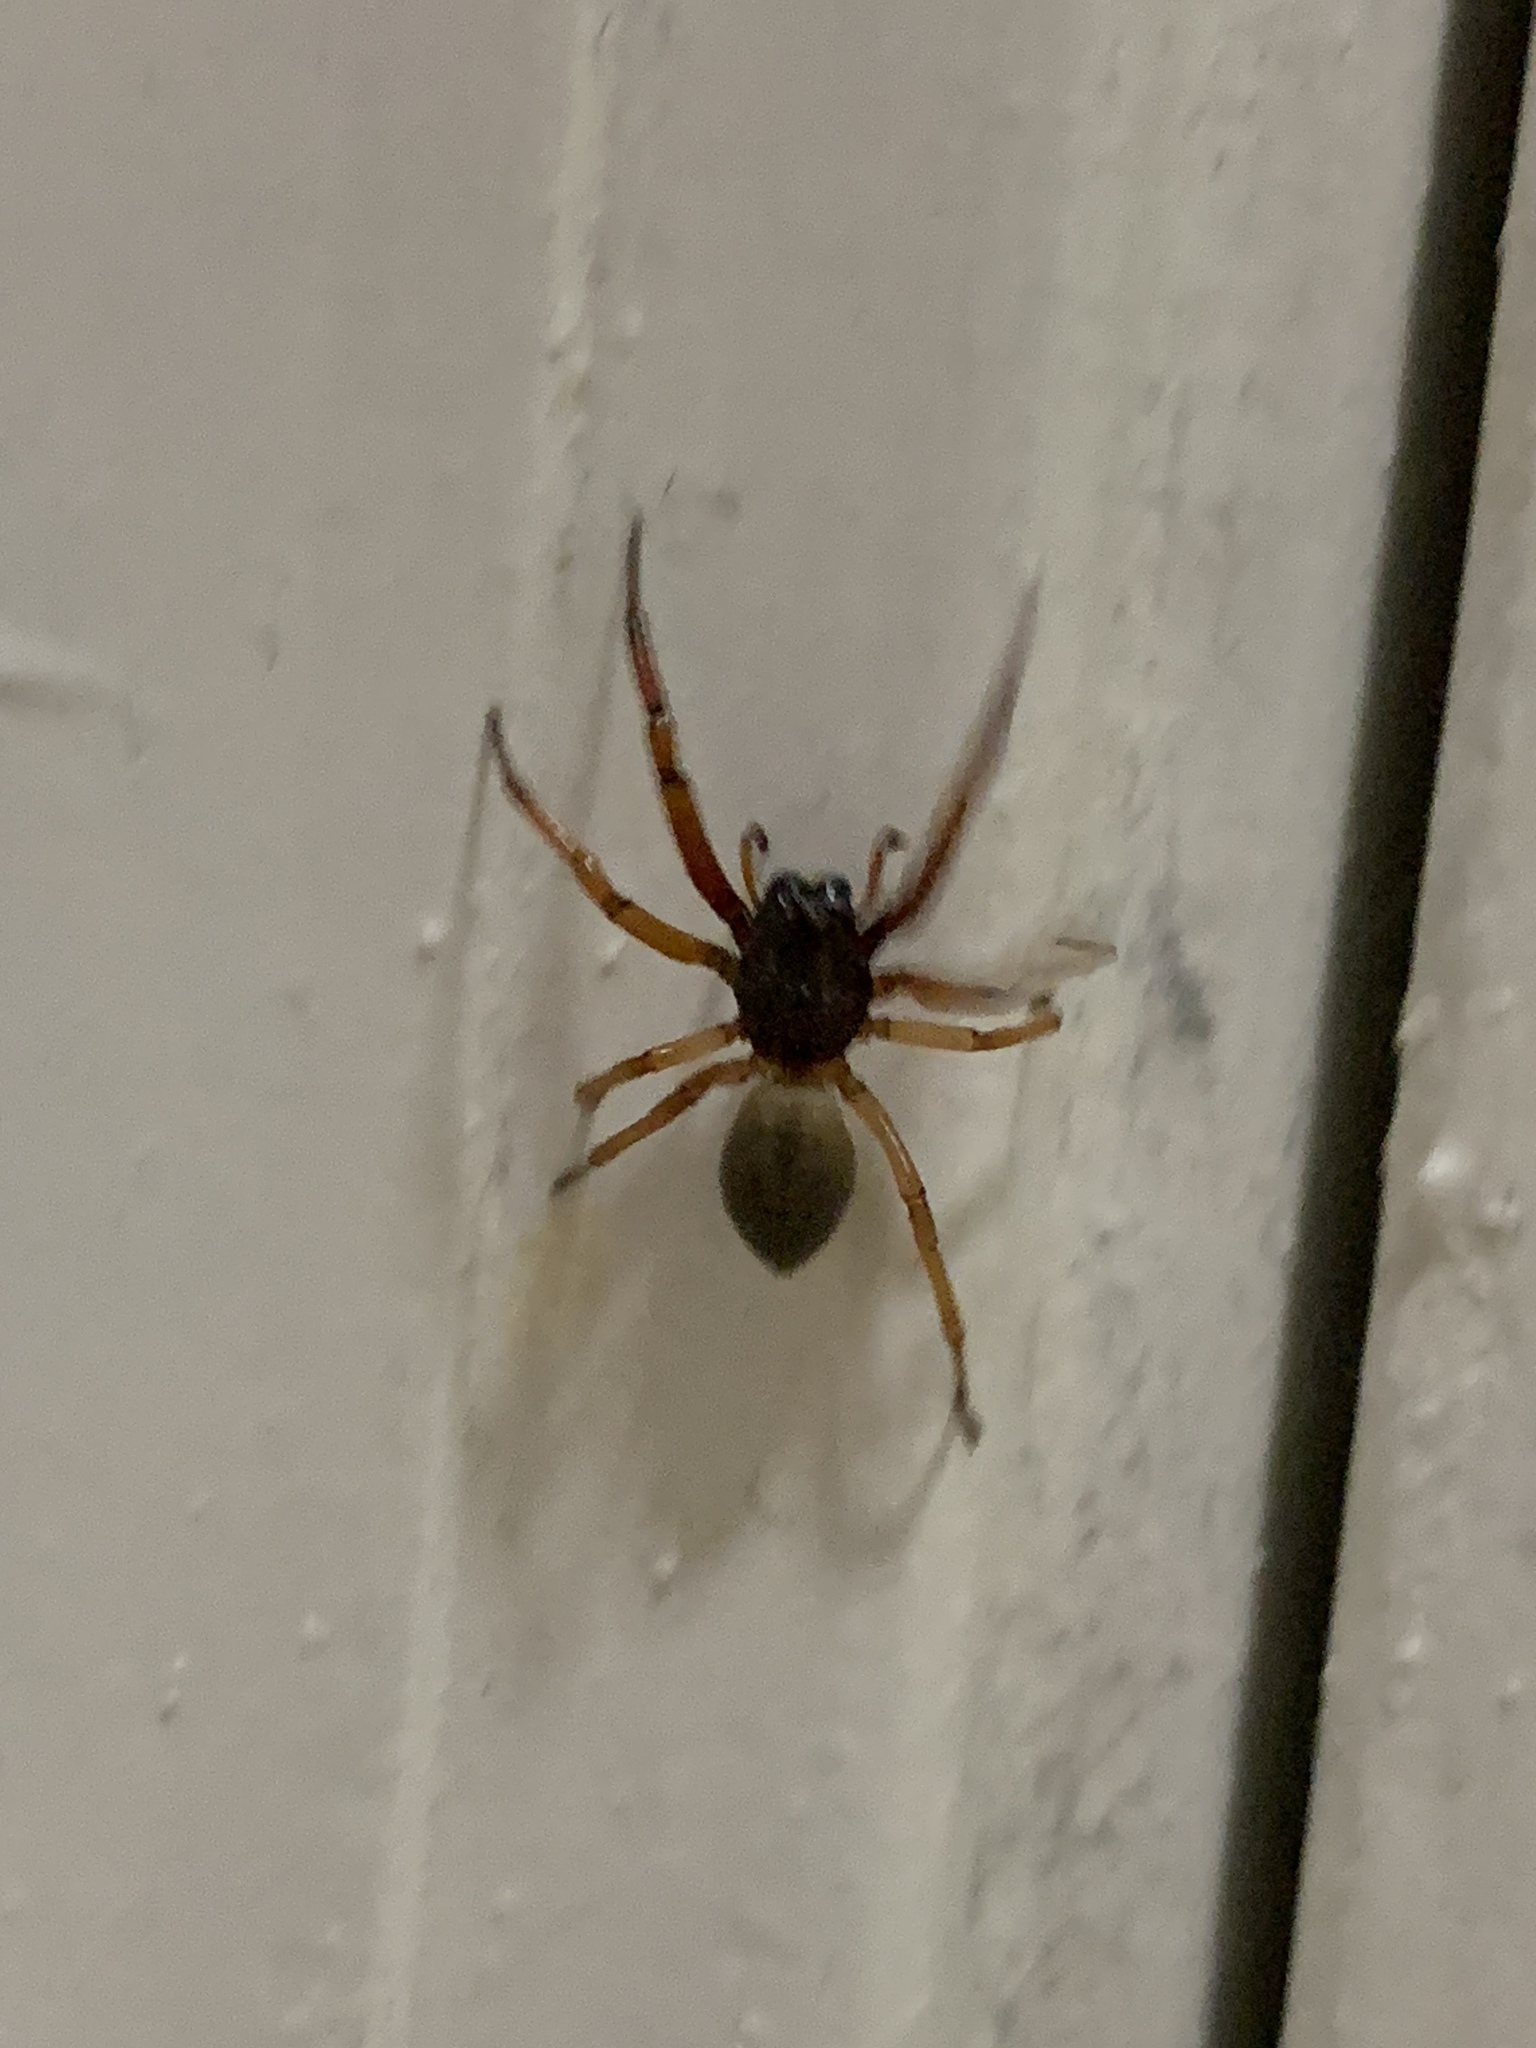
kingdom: Animalia
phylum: Arthropoda
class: Arachnida
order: Araneae
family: Trachelidae
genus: Trachelas
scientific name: Trachelas
